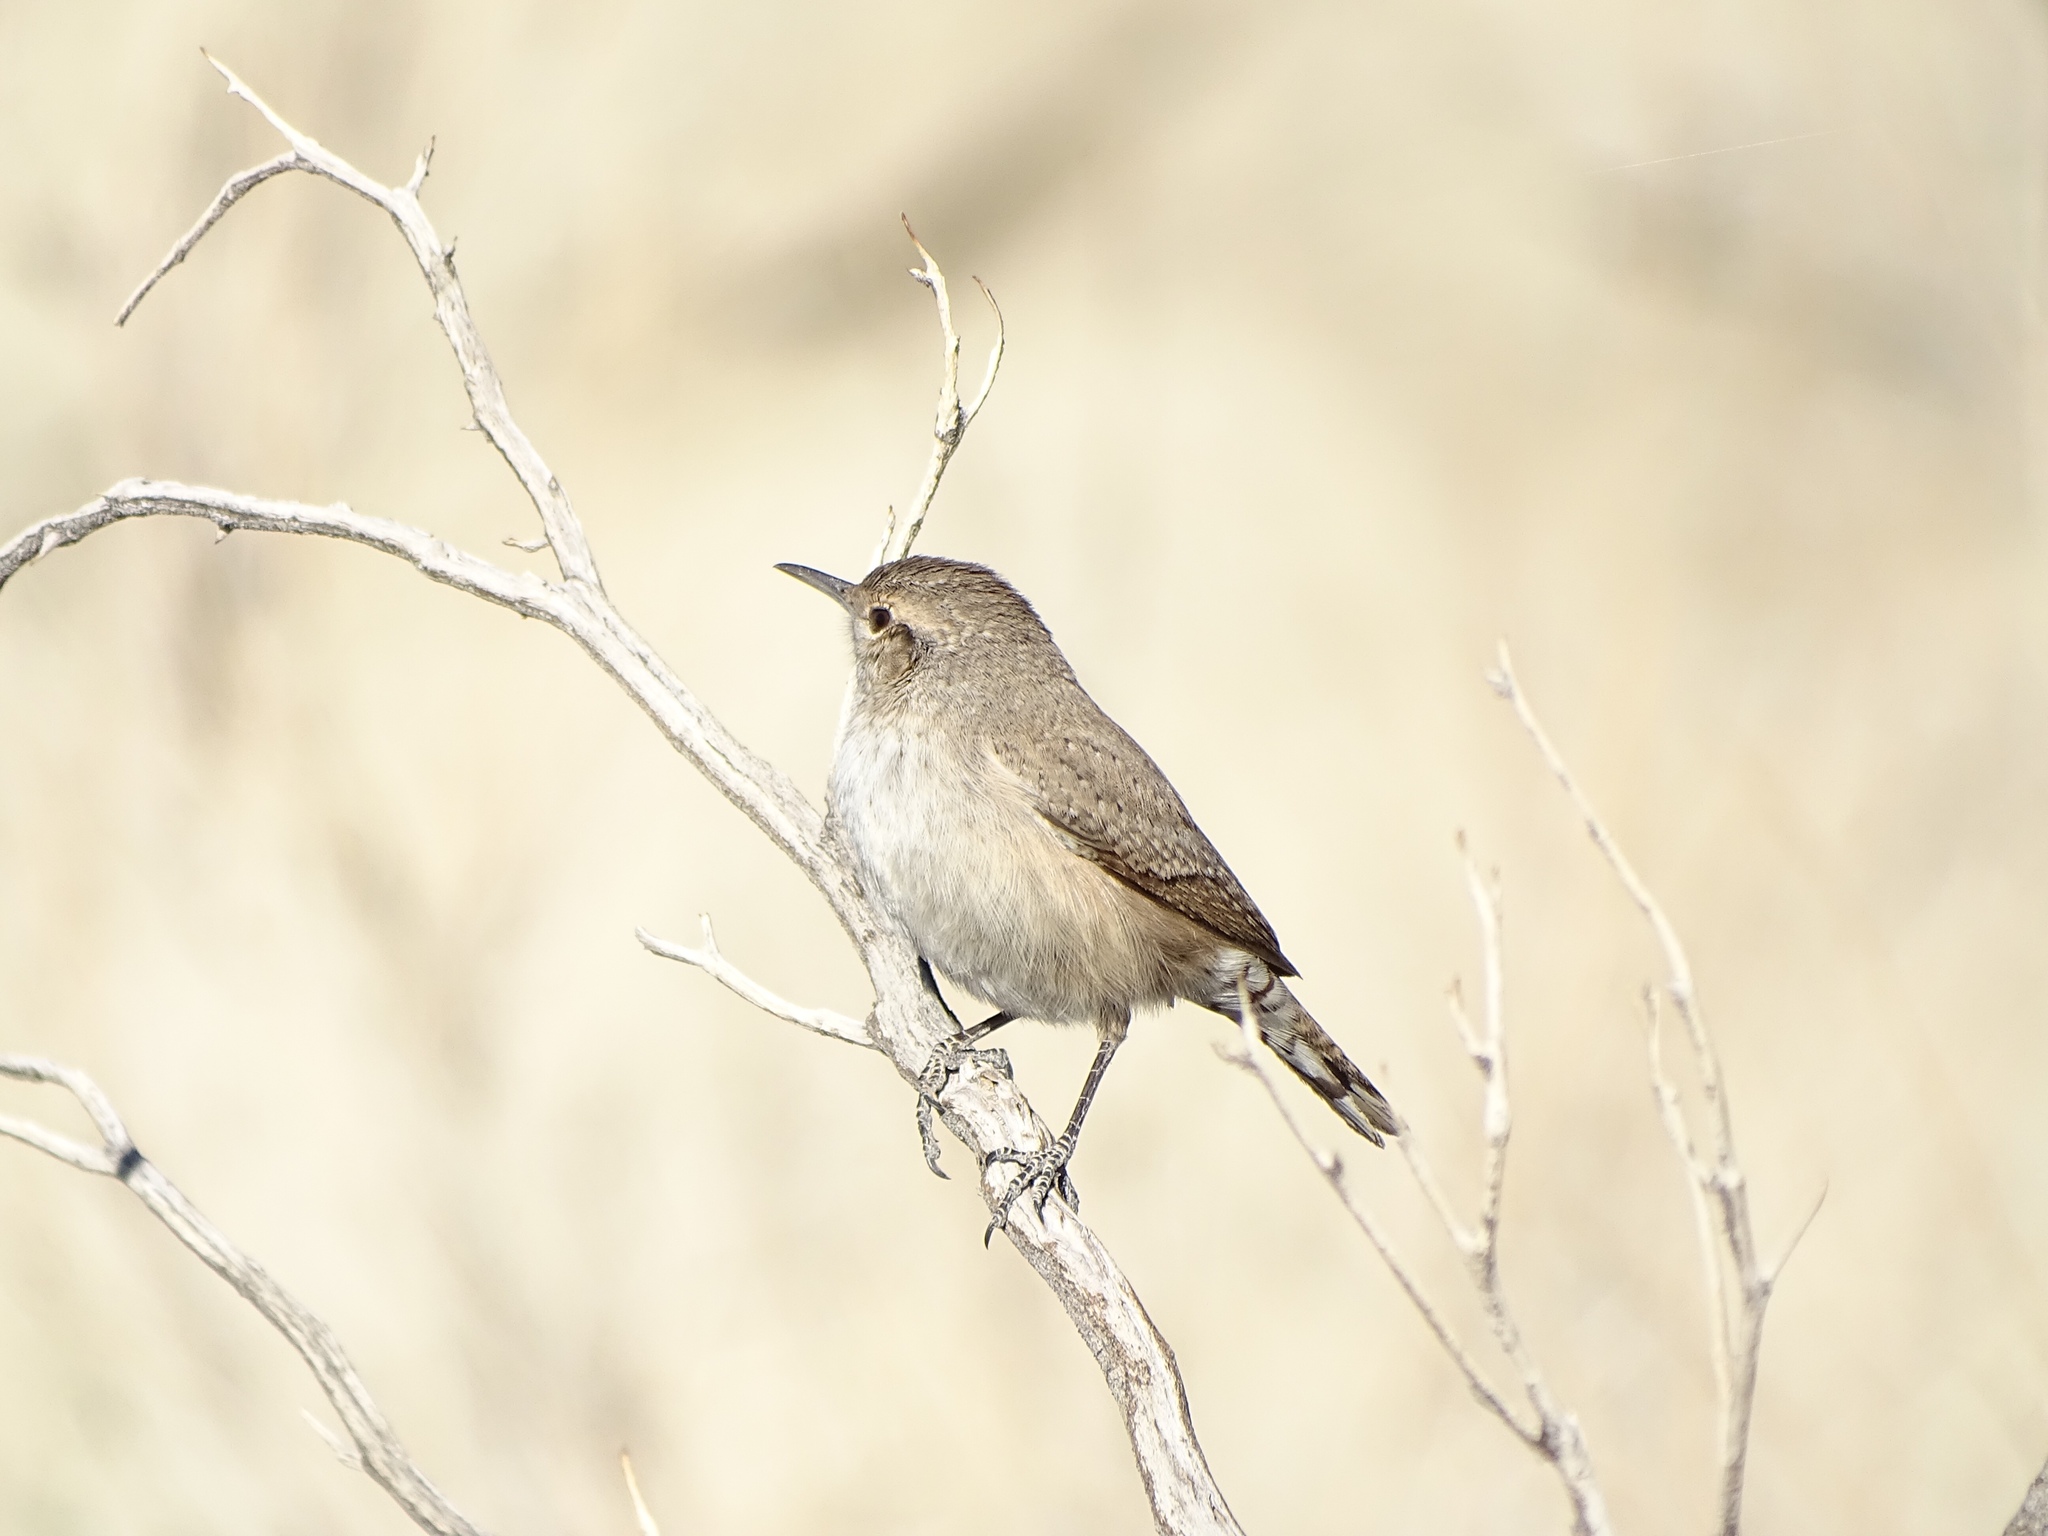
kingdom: Animalia
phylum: Chordata
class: Aves
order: Passeriformes
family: Troglodytidae
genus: Salpinctes
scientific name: Salpinctes obsoletus
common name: Rock wren
